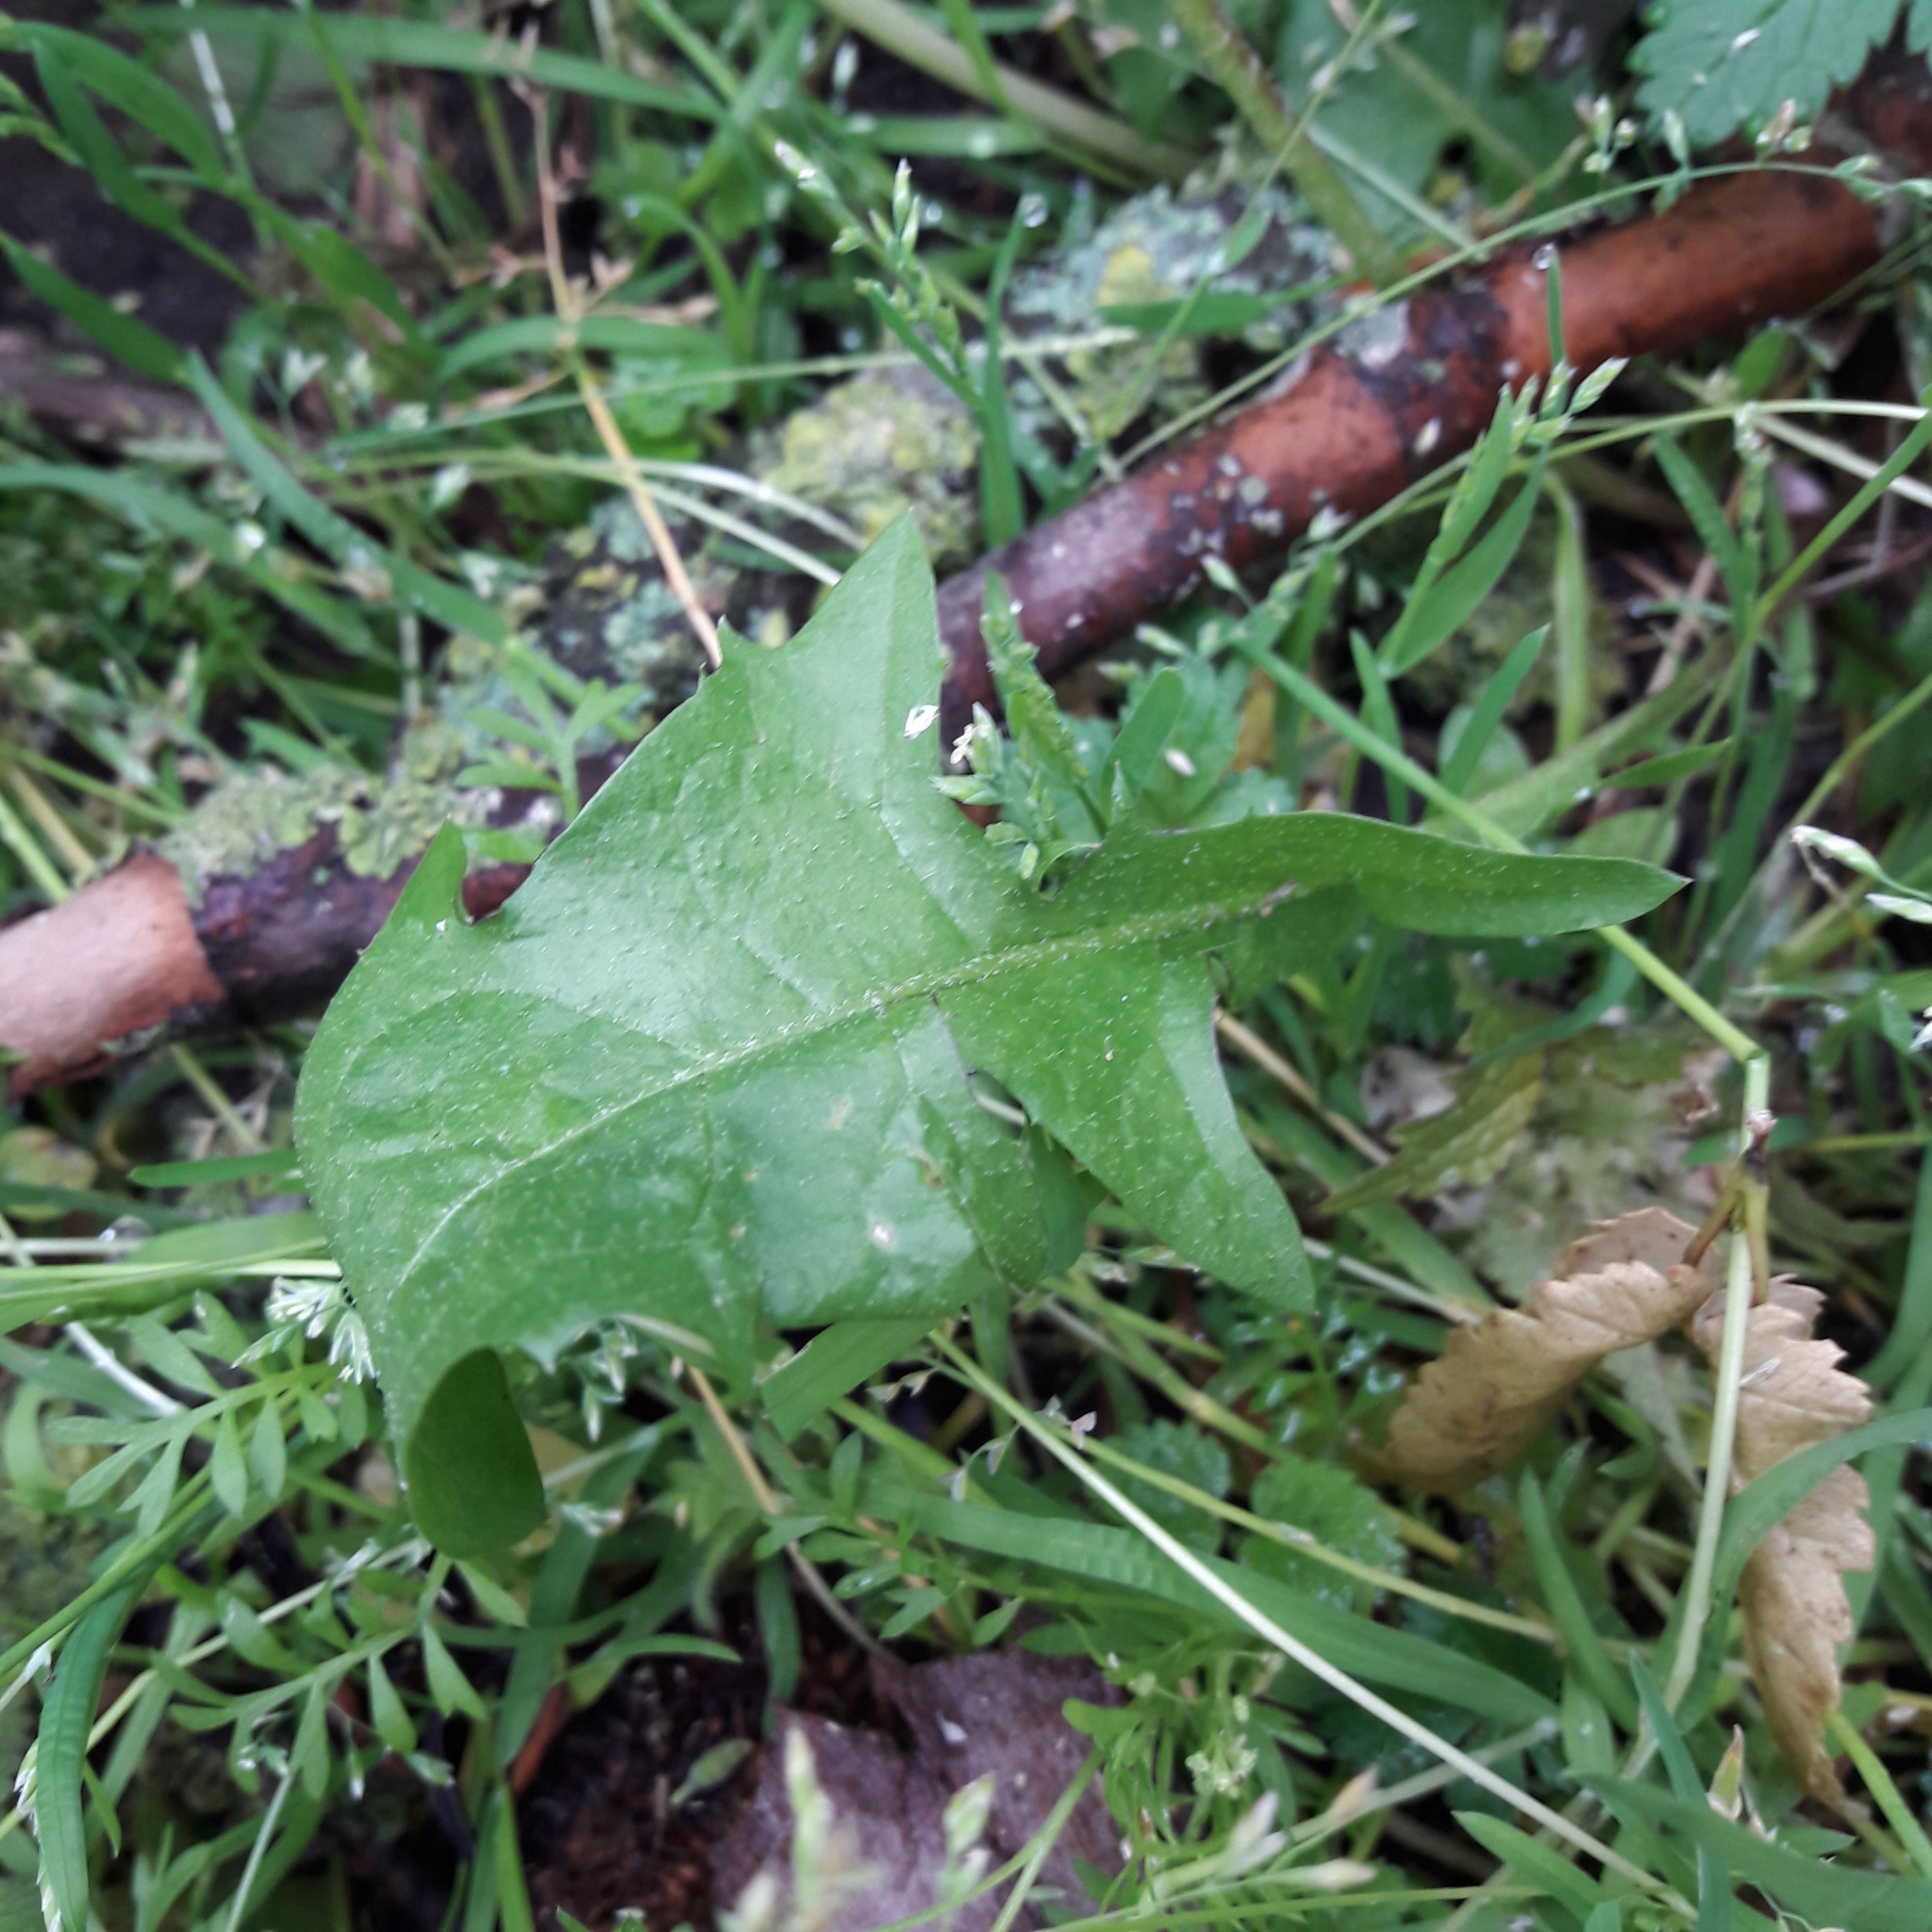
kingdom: Plantae
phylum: Tracheophyta
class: Magnoliopsida
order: Asterales
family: Asteraceae
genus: Taraxacum
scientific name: Taraxacum officinale
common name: Common dandelion
